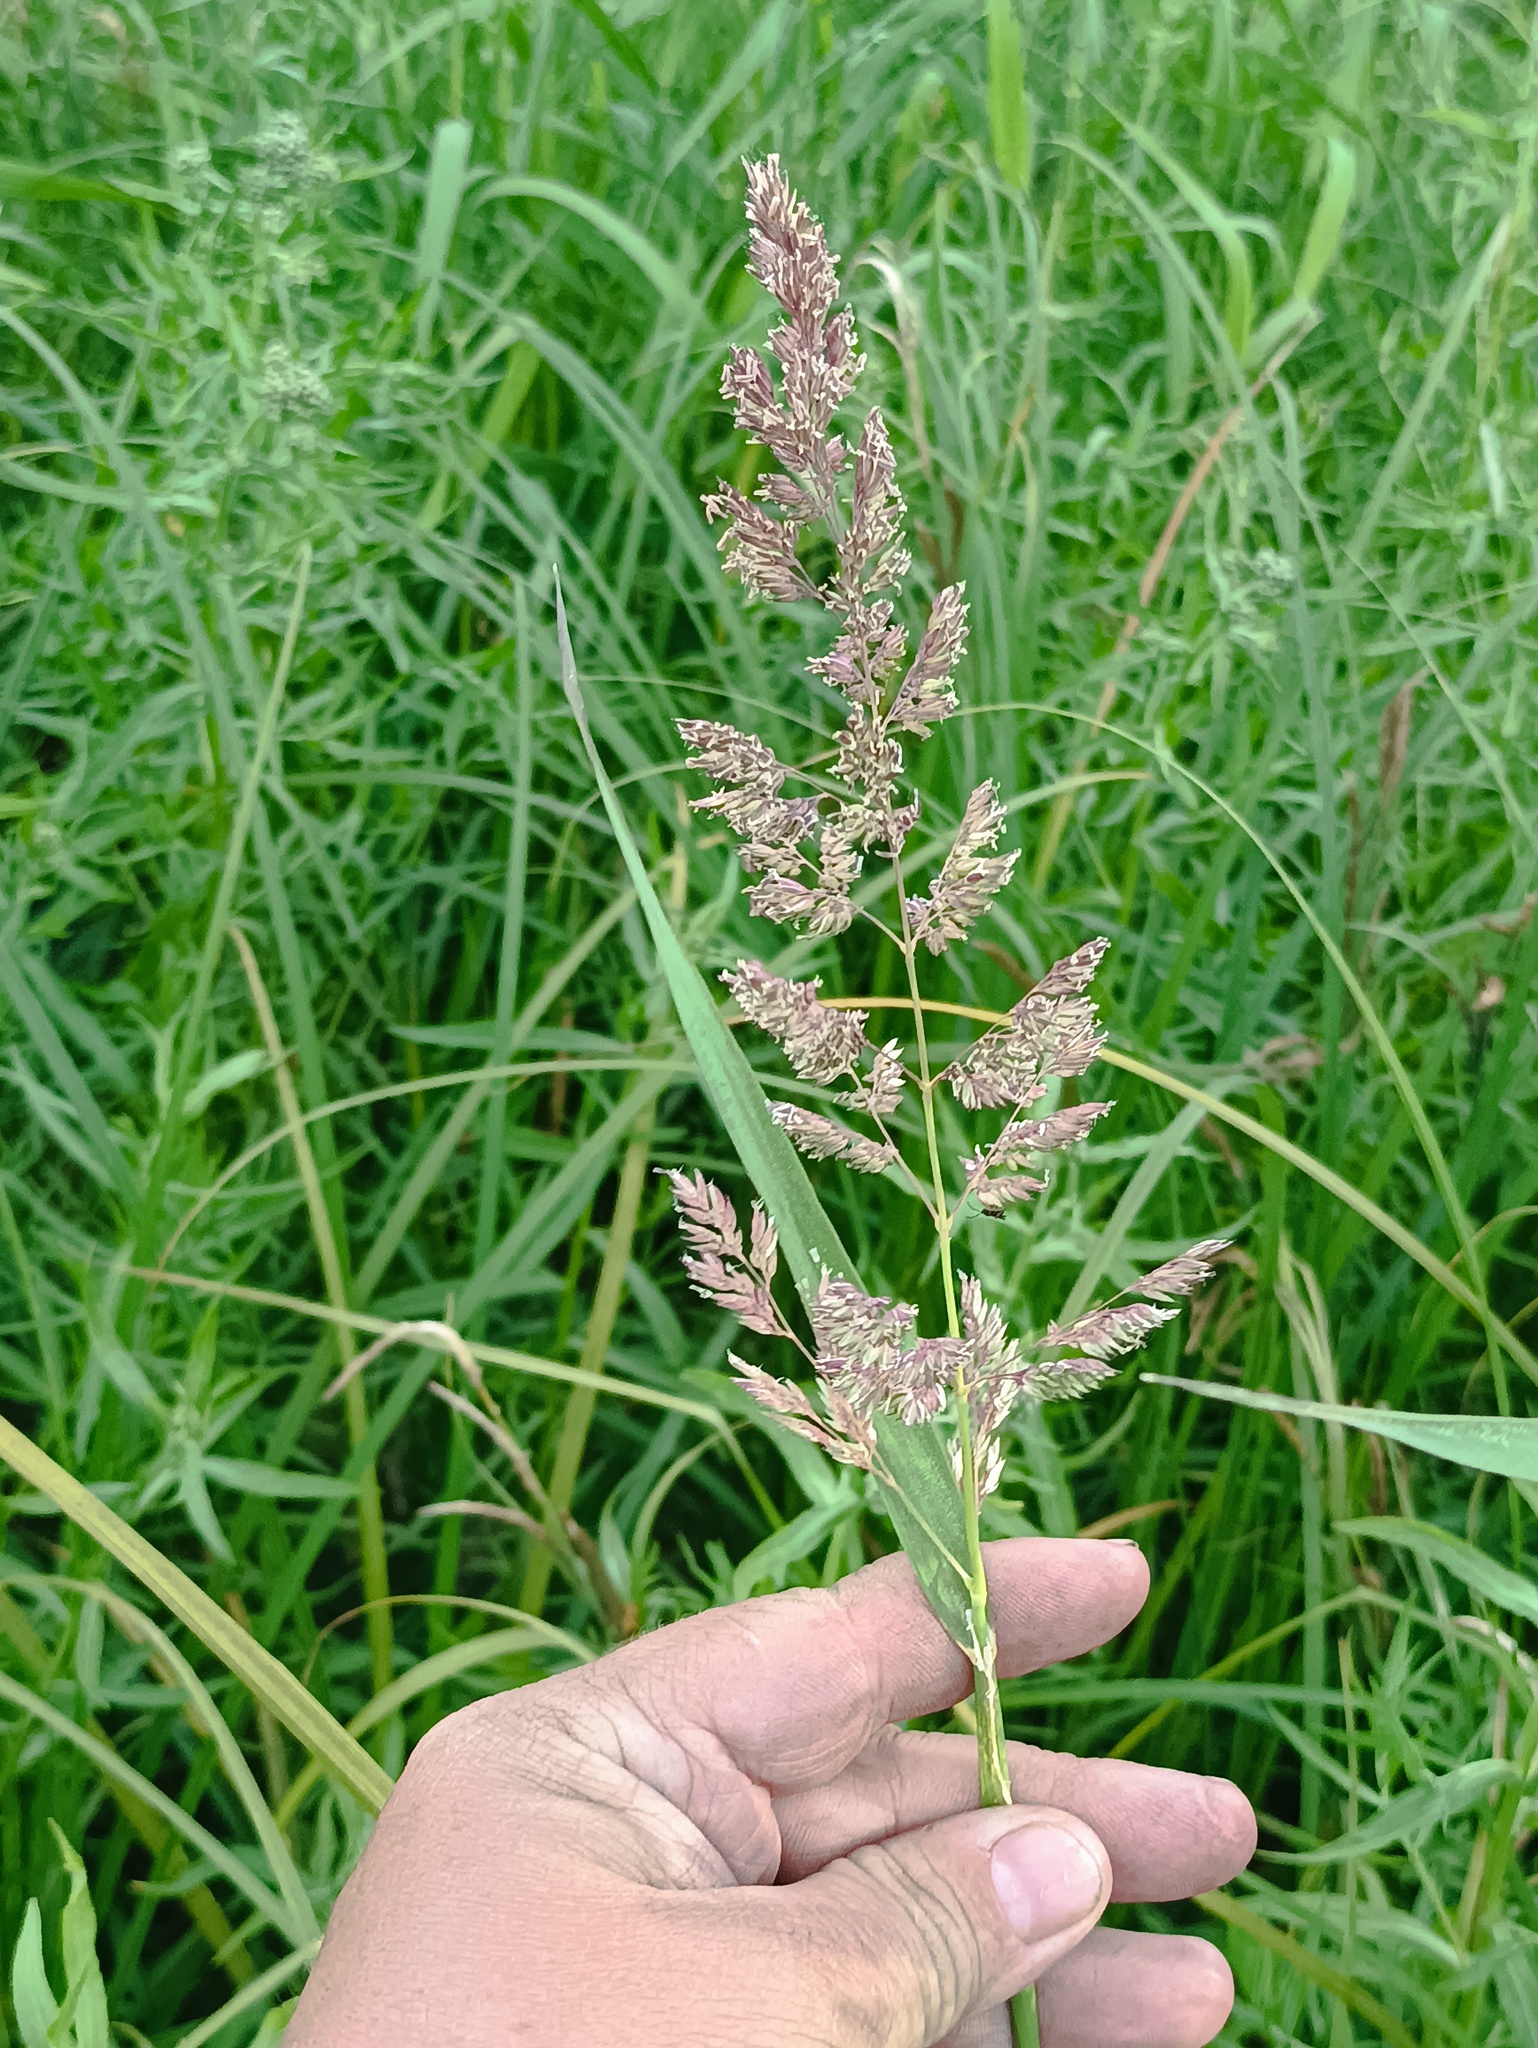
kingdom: Plantae
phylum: Tracheophyta
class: Liliopsida
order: Poales
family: Poaceae
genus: Phalaris
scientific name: Phalaris arundinacea
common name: Reed canary-grass
